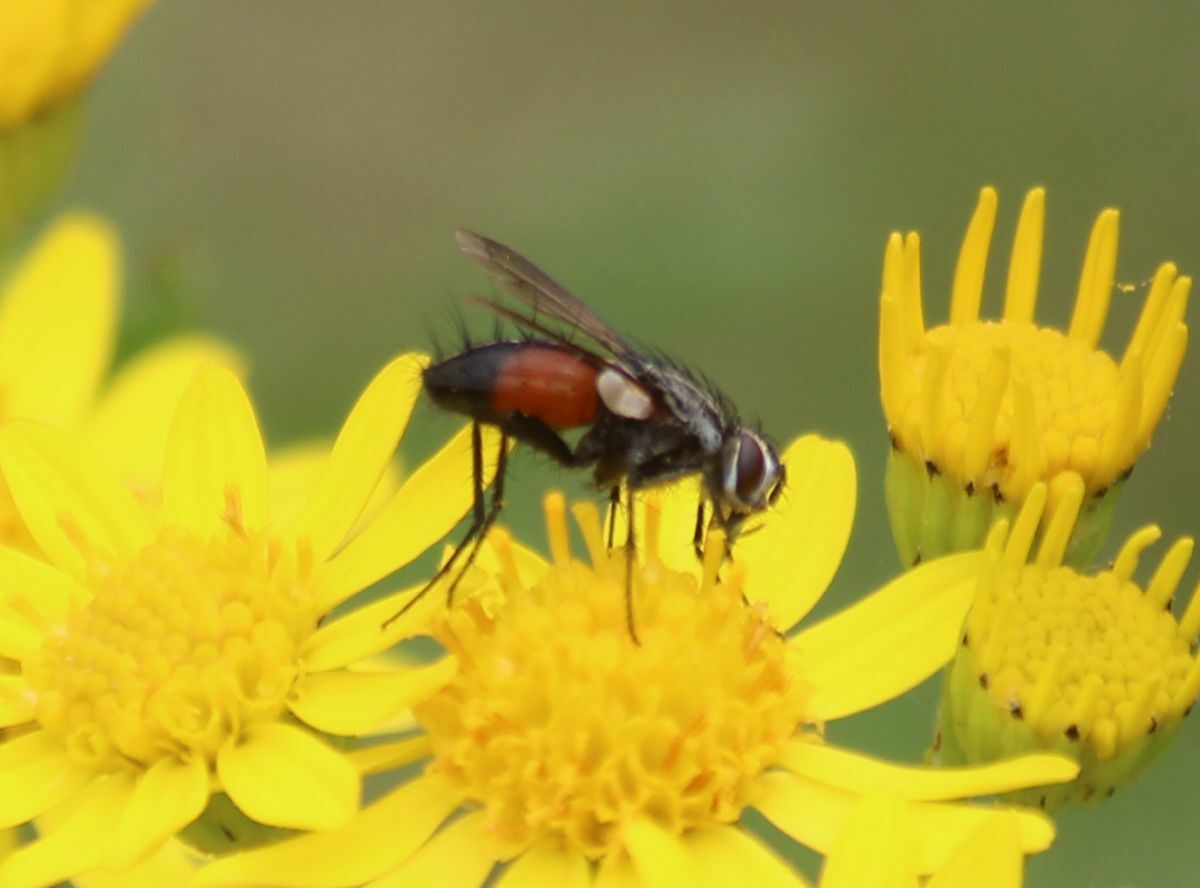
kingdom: Animalia
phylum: Arthropoda
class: Insecta
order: Diptera
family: Tachinidae
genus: Eriothrix
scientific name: Eriothrix rufomaculatus
